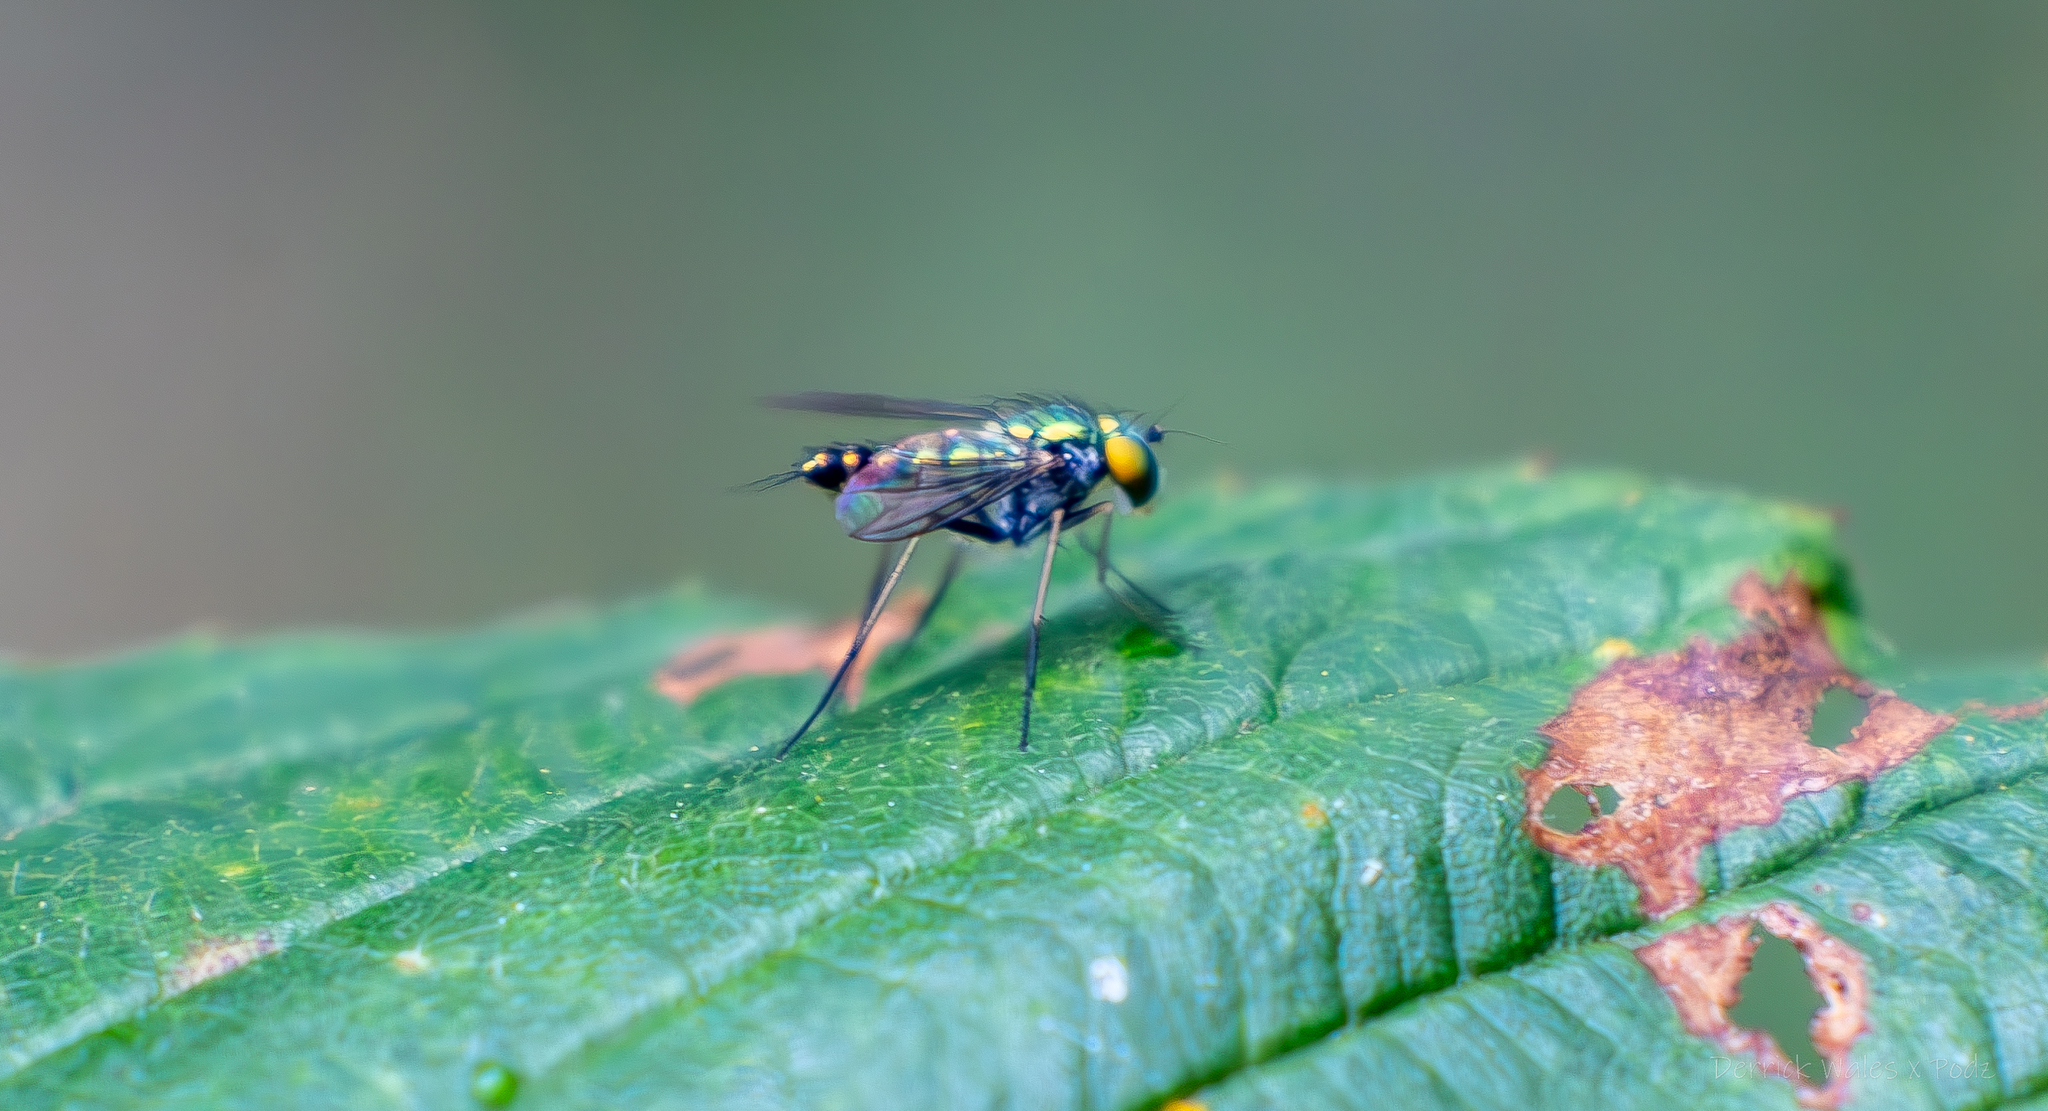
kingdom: Animalia
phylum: Arthropoda
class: Insecta
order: Diptera
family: Dolichopodidae
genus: Condylostylus
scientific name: Condylostylus caudatus
